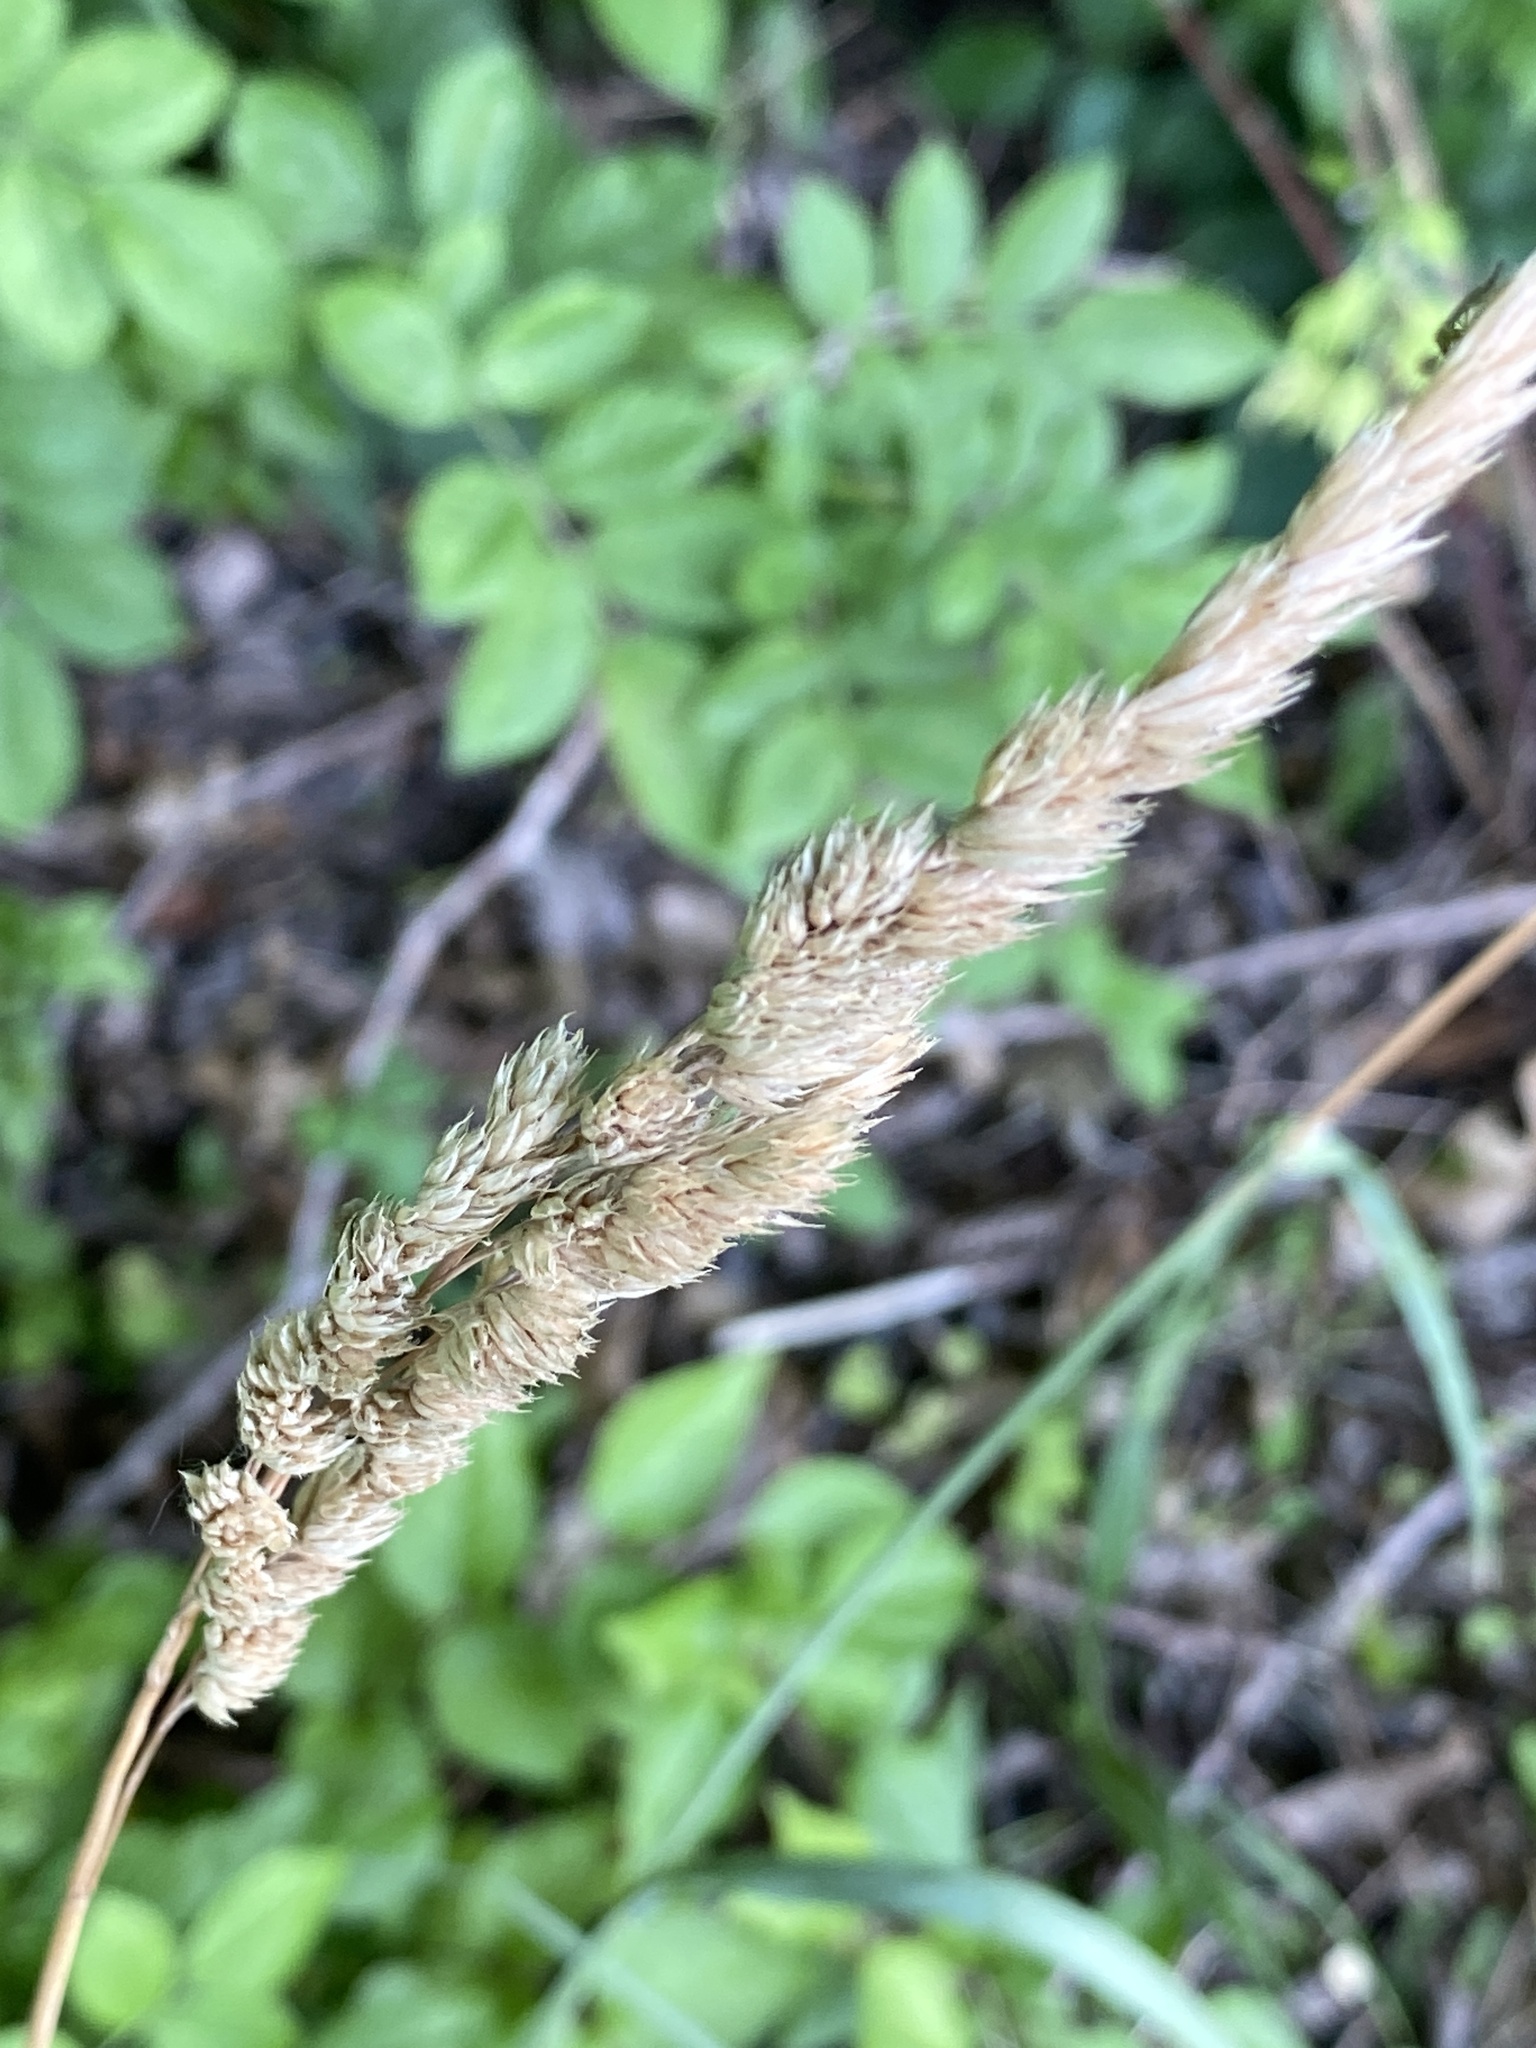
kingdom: Plantae
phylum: Tracheophyta
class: Liliopsida
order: Poales
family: Poaceae
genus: Dactylis
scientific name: Dactylis glomerata
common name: Orchardgrass
